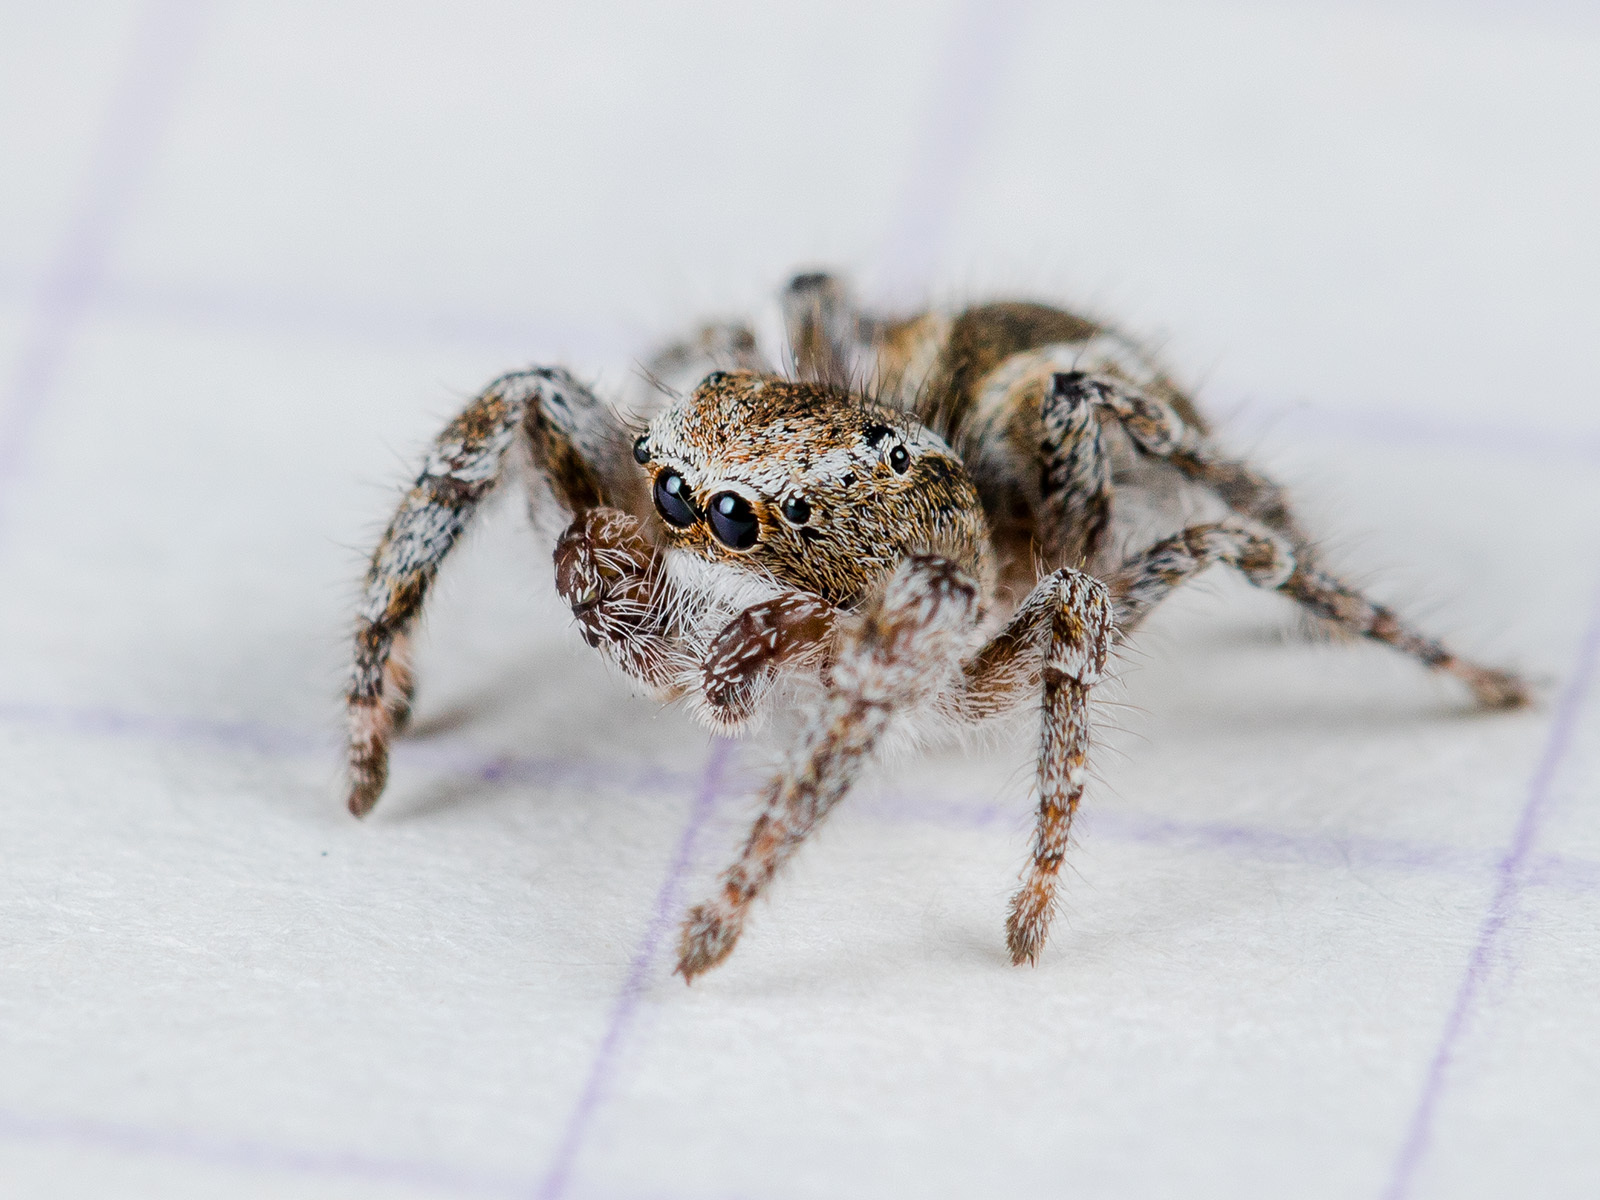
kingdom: Animalia
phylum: Arthropoda
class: Arachnida
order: Araneae
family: Salticidae
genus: Pseudomogrus
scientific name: Pseudomogrus vittatus
